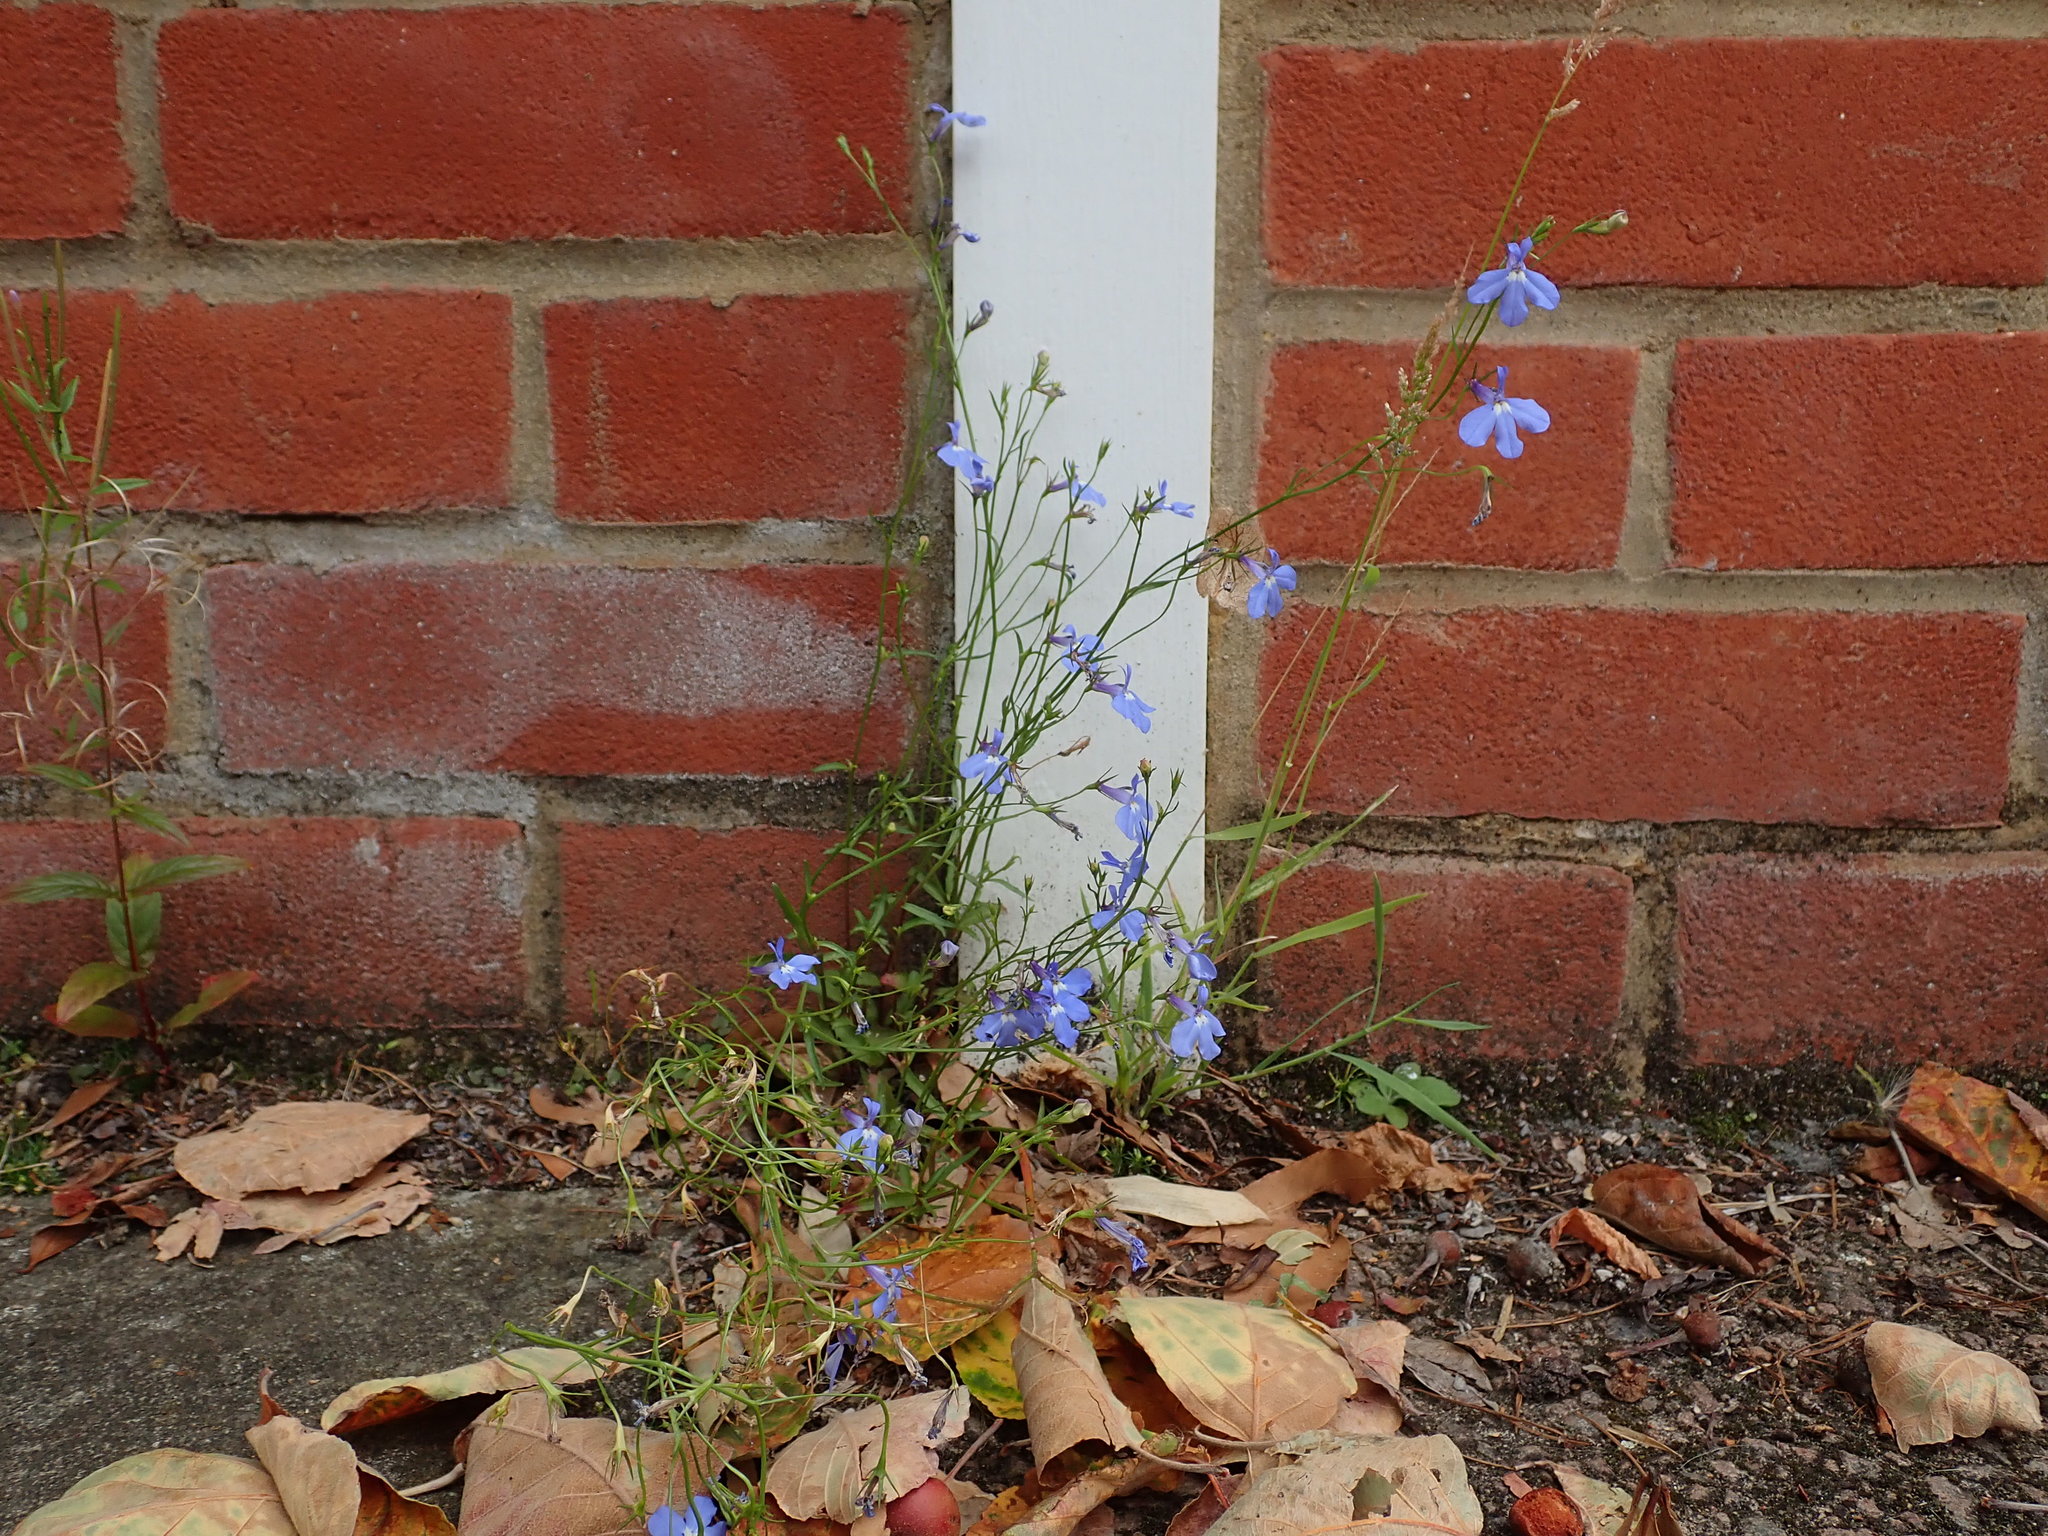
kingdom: Plantae
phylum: Tracheophyta
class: Magnoliopsida
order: Asterales
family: Campanulaceae
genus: Lobelia
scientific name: Lobelia erinus
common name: Edging lobelia
